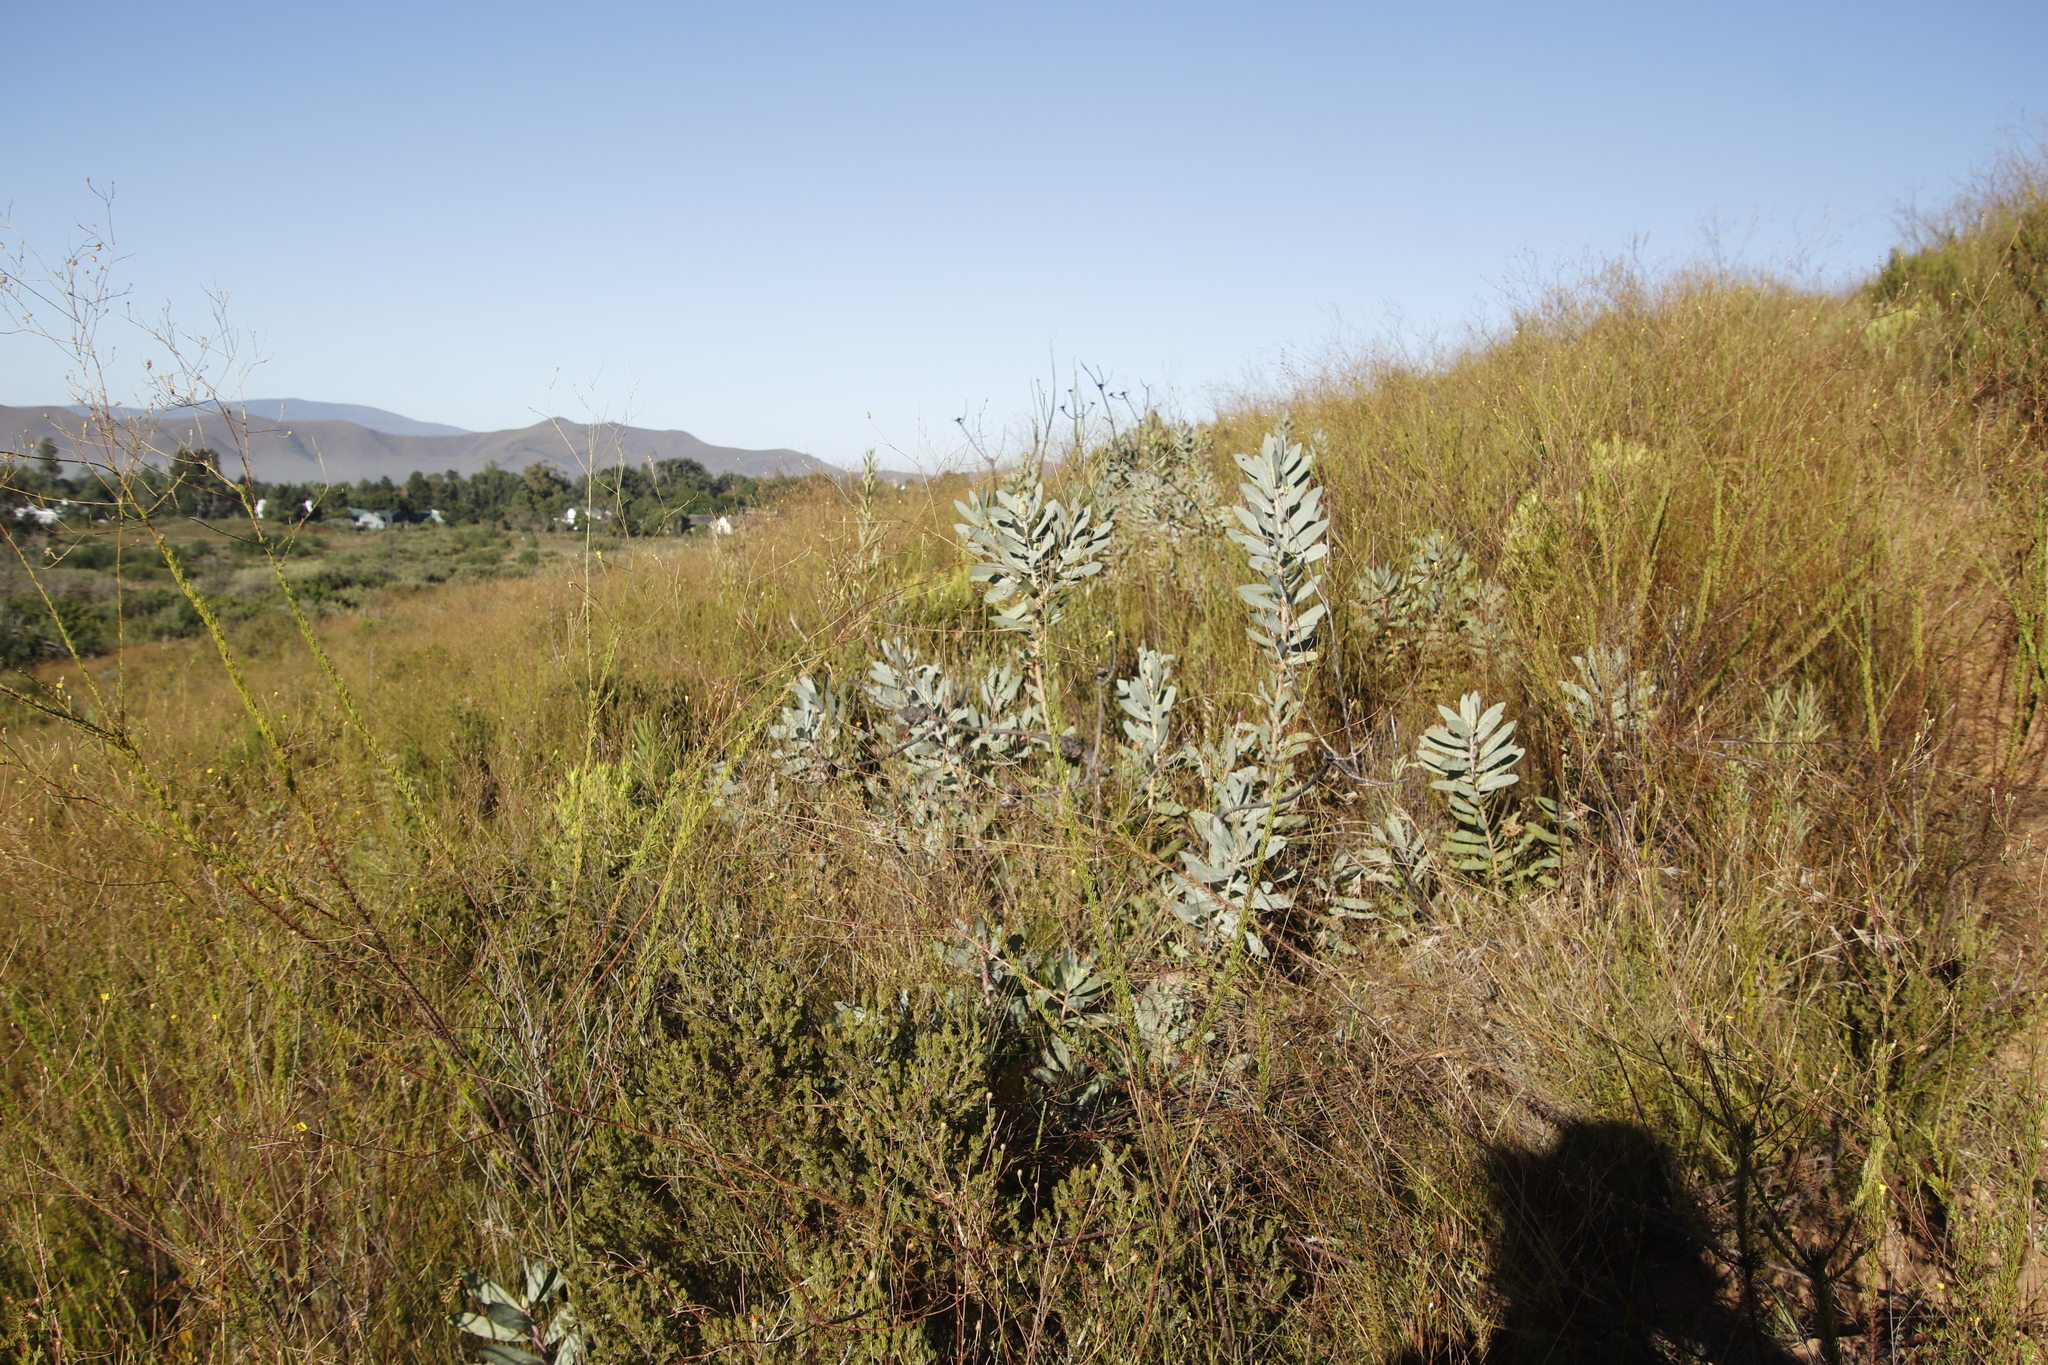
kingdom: Plantae
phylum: Tracheophyta
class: Magnoliopsida
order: Proteales
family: Proteaceae
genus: Protea
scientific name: Protea nitida
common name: Tree protea
